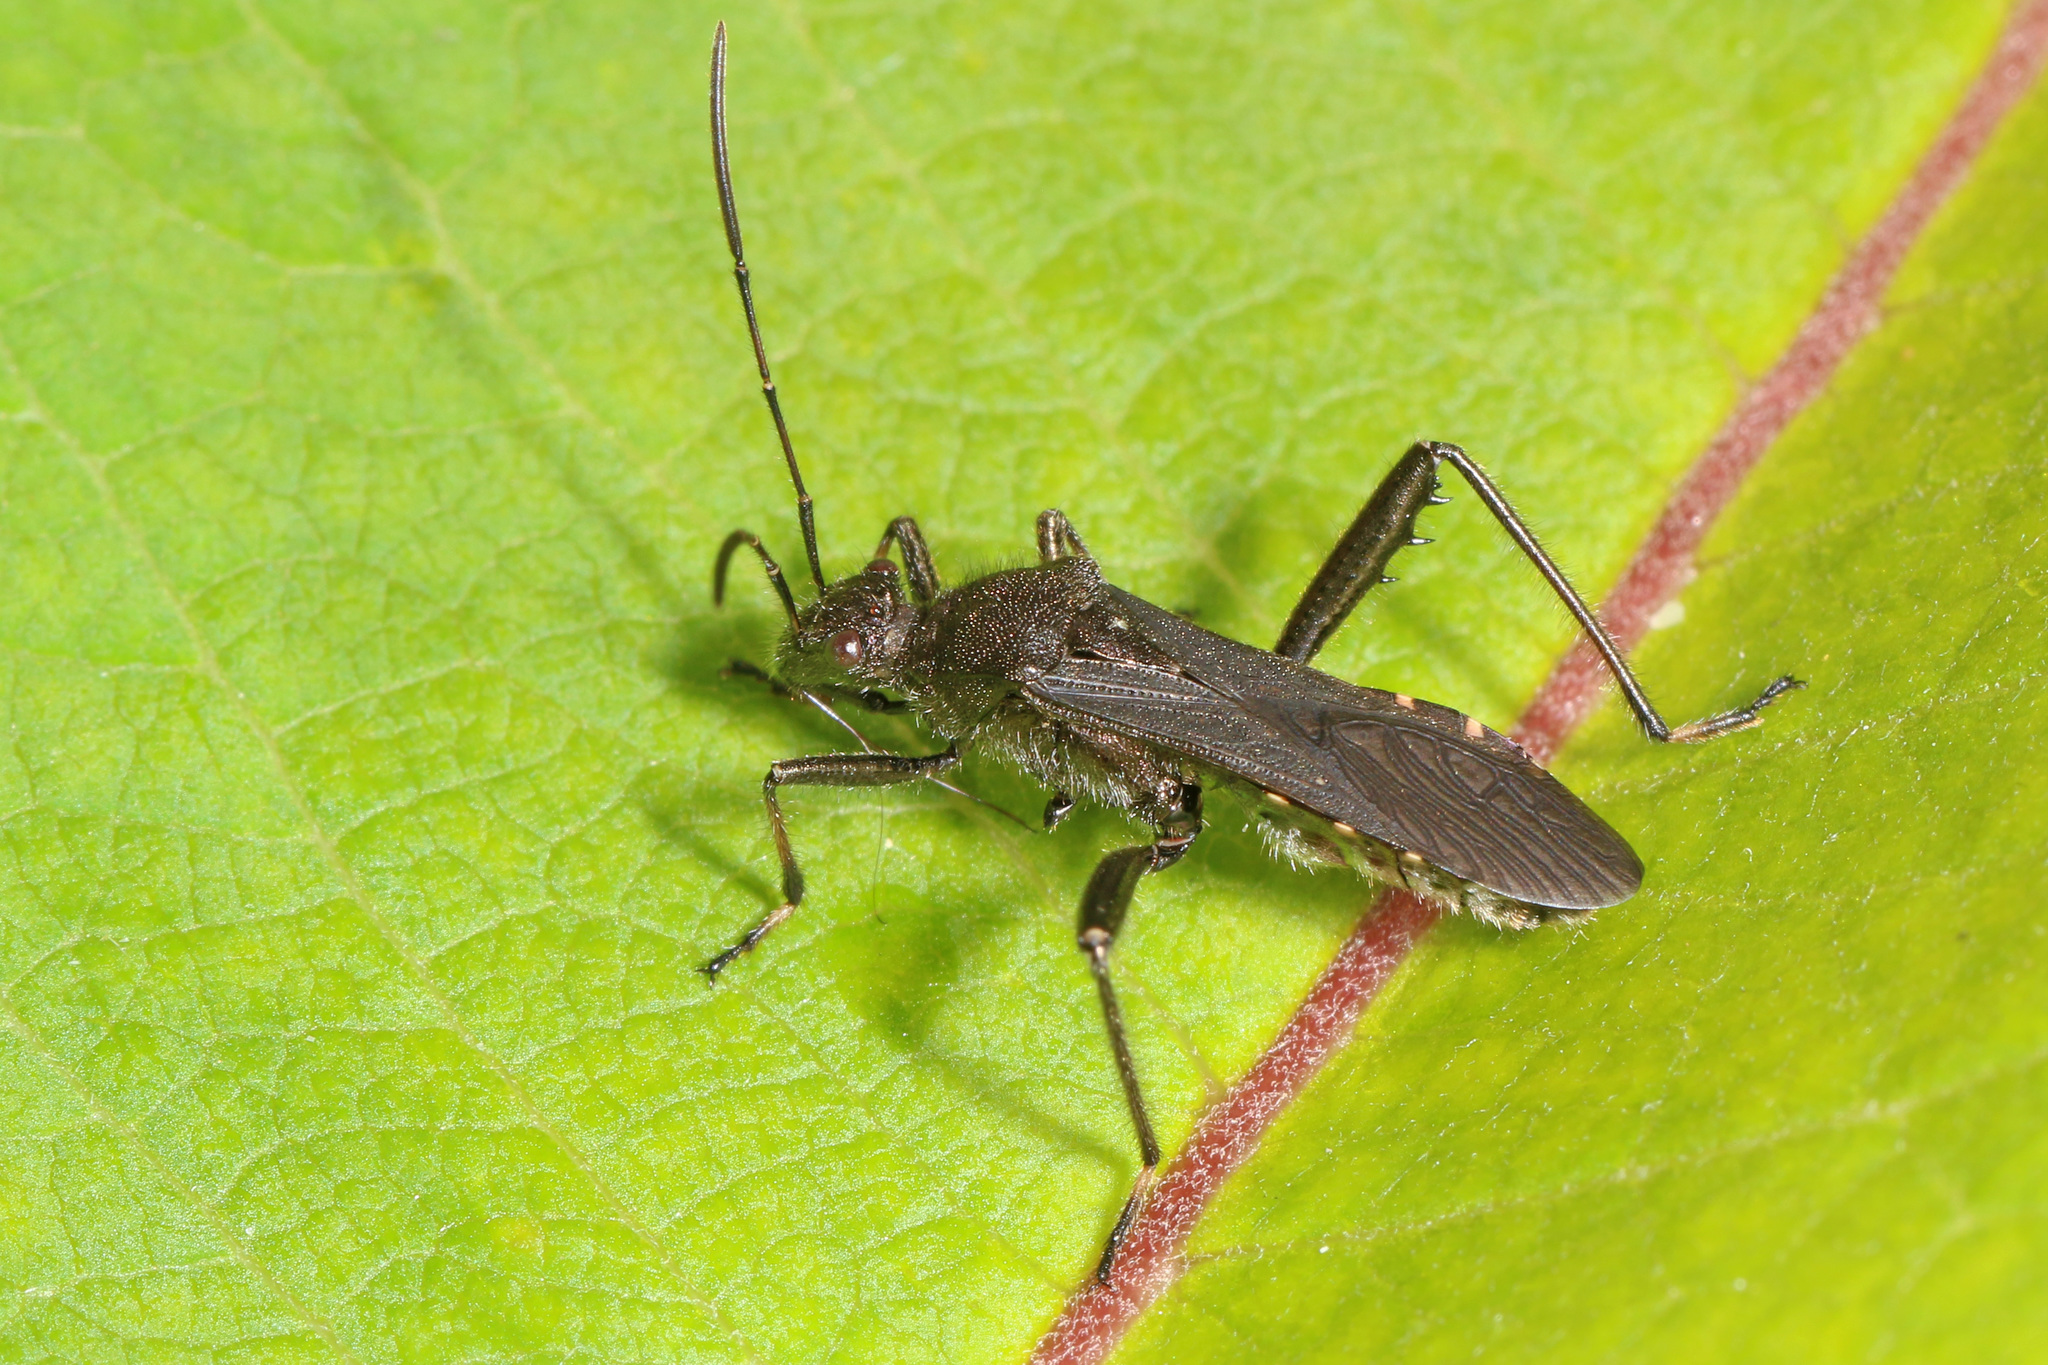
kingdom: Animalia
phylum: Arthropoda
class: Insecta
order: Hemiptera
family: Alydidae
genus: Alydus
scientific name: Alydus eurinus
